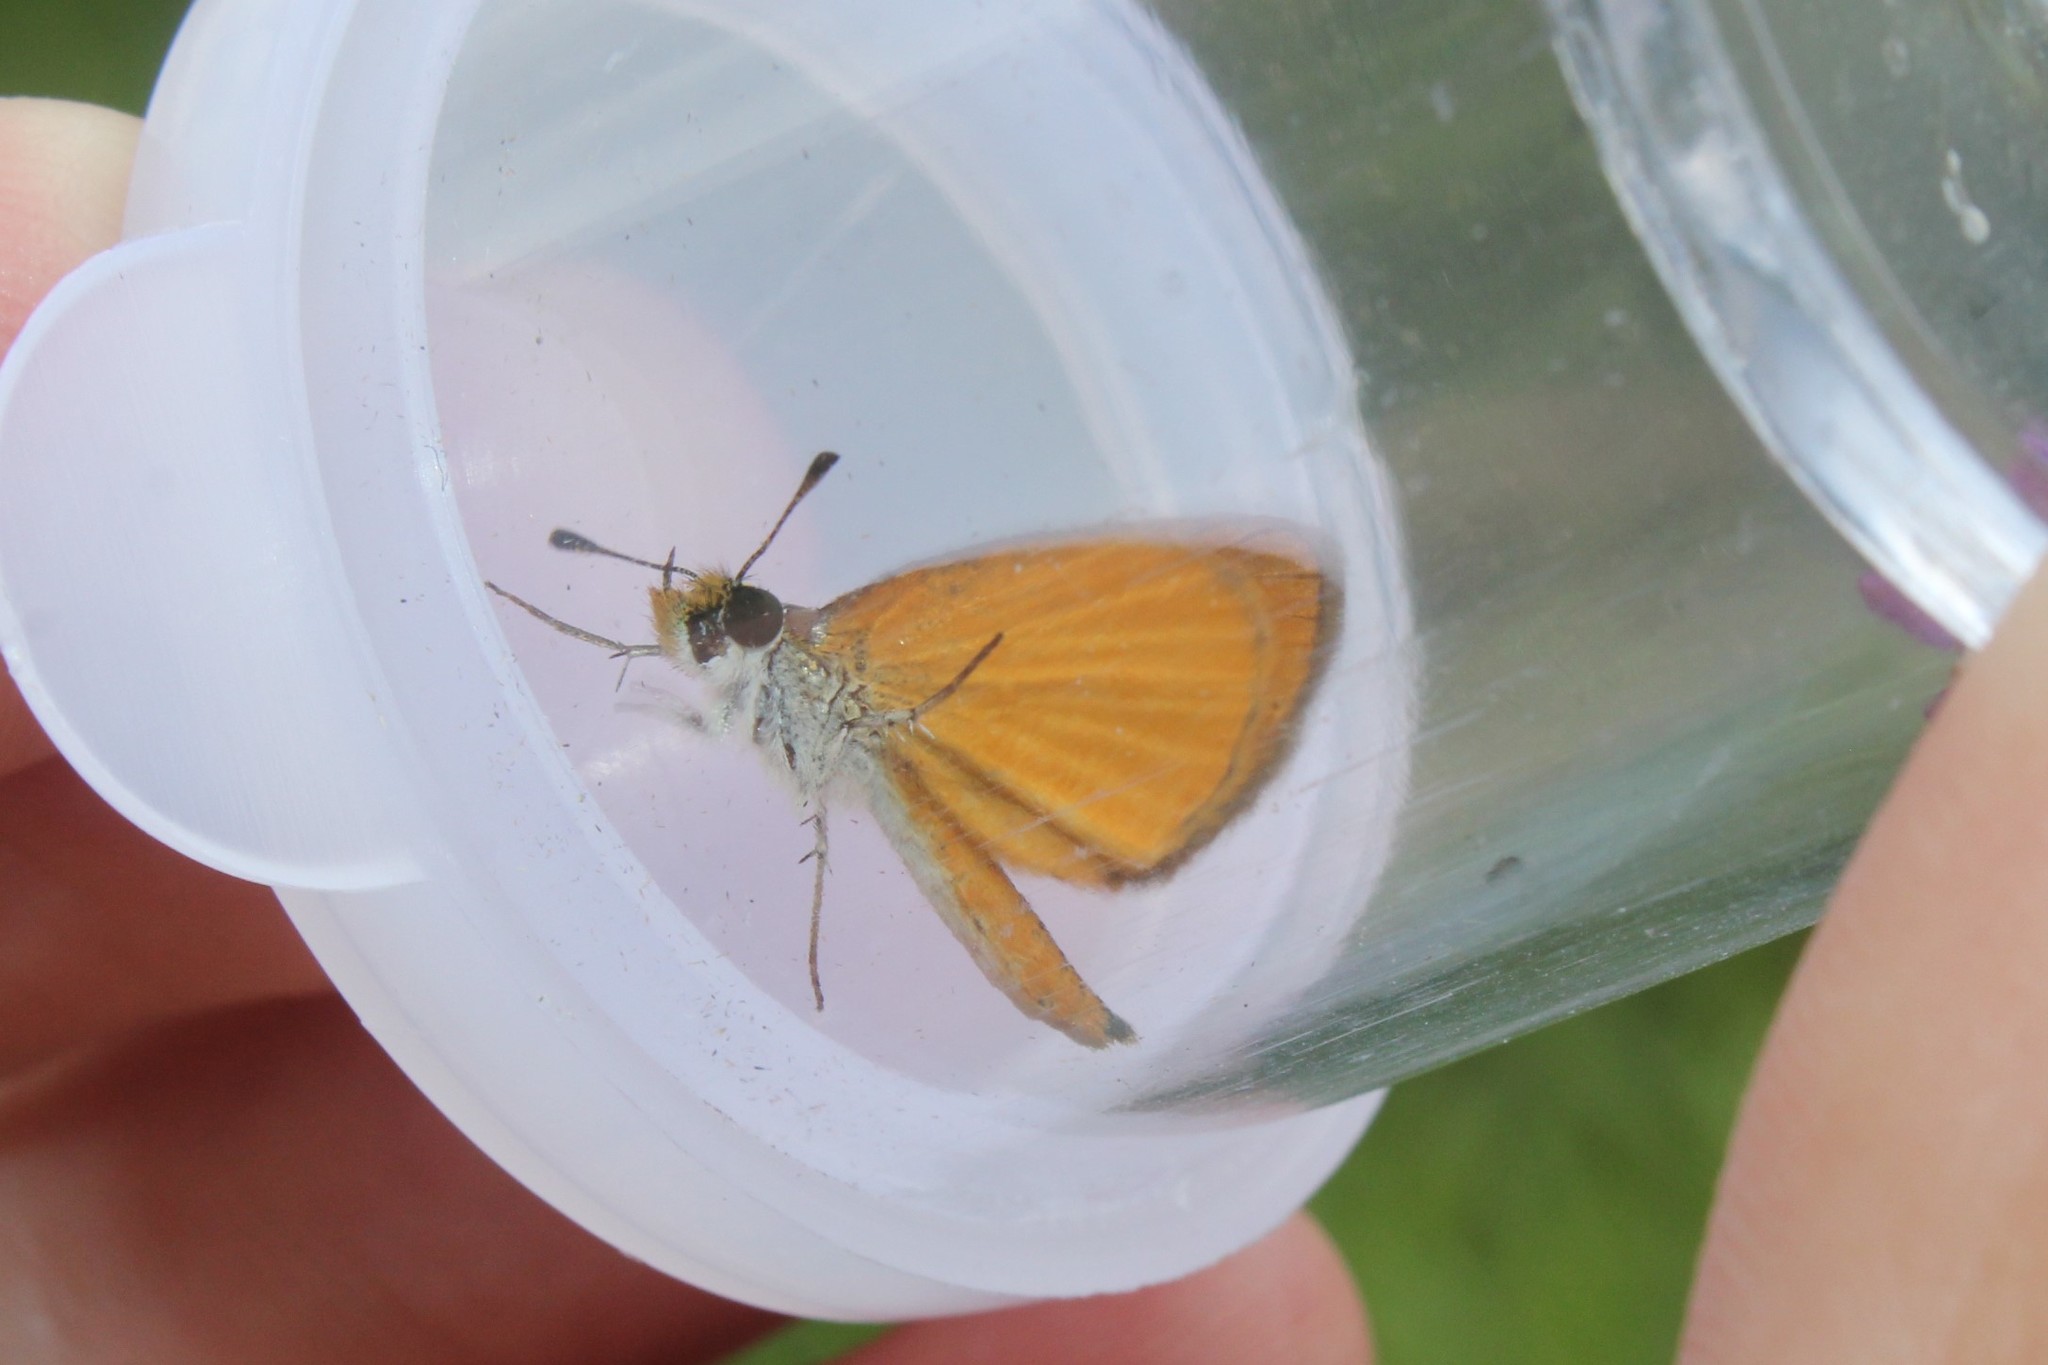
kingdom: Animalia
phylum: Arthropoda
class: Insecta
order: Lepidoptera
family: Hesperiidae
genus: Ancyloxypha
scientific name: Ancyloxypha numitor
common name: Least skipper
